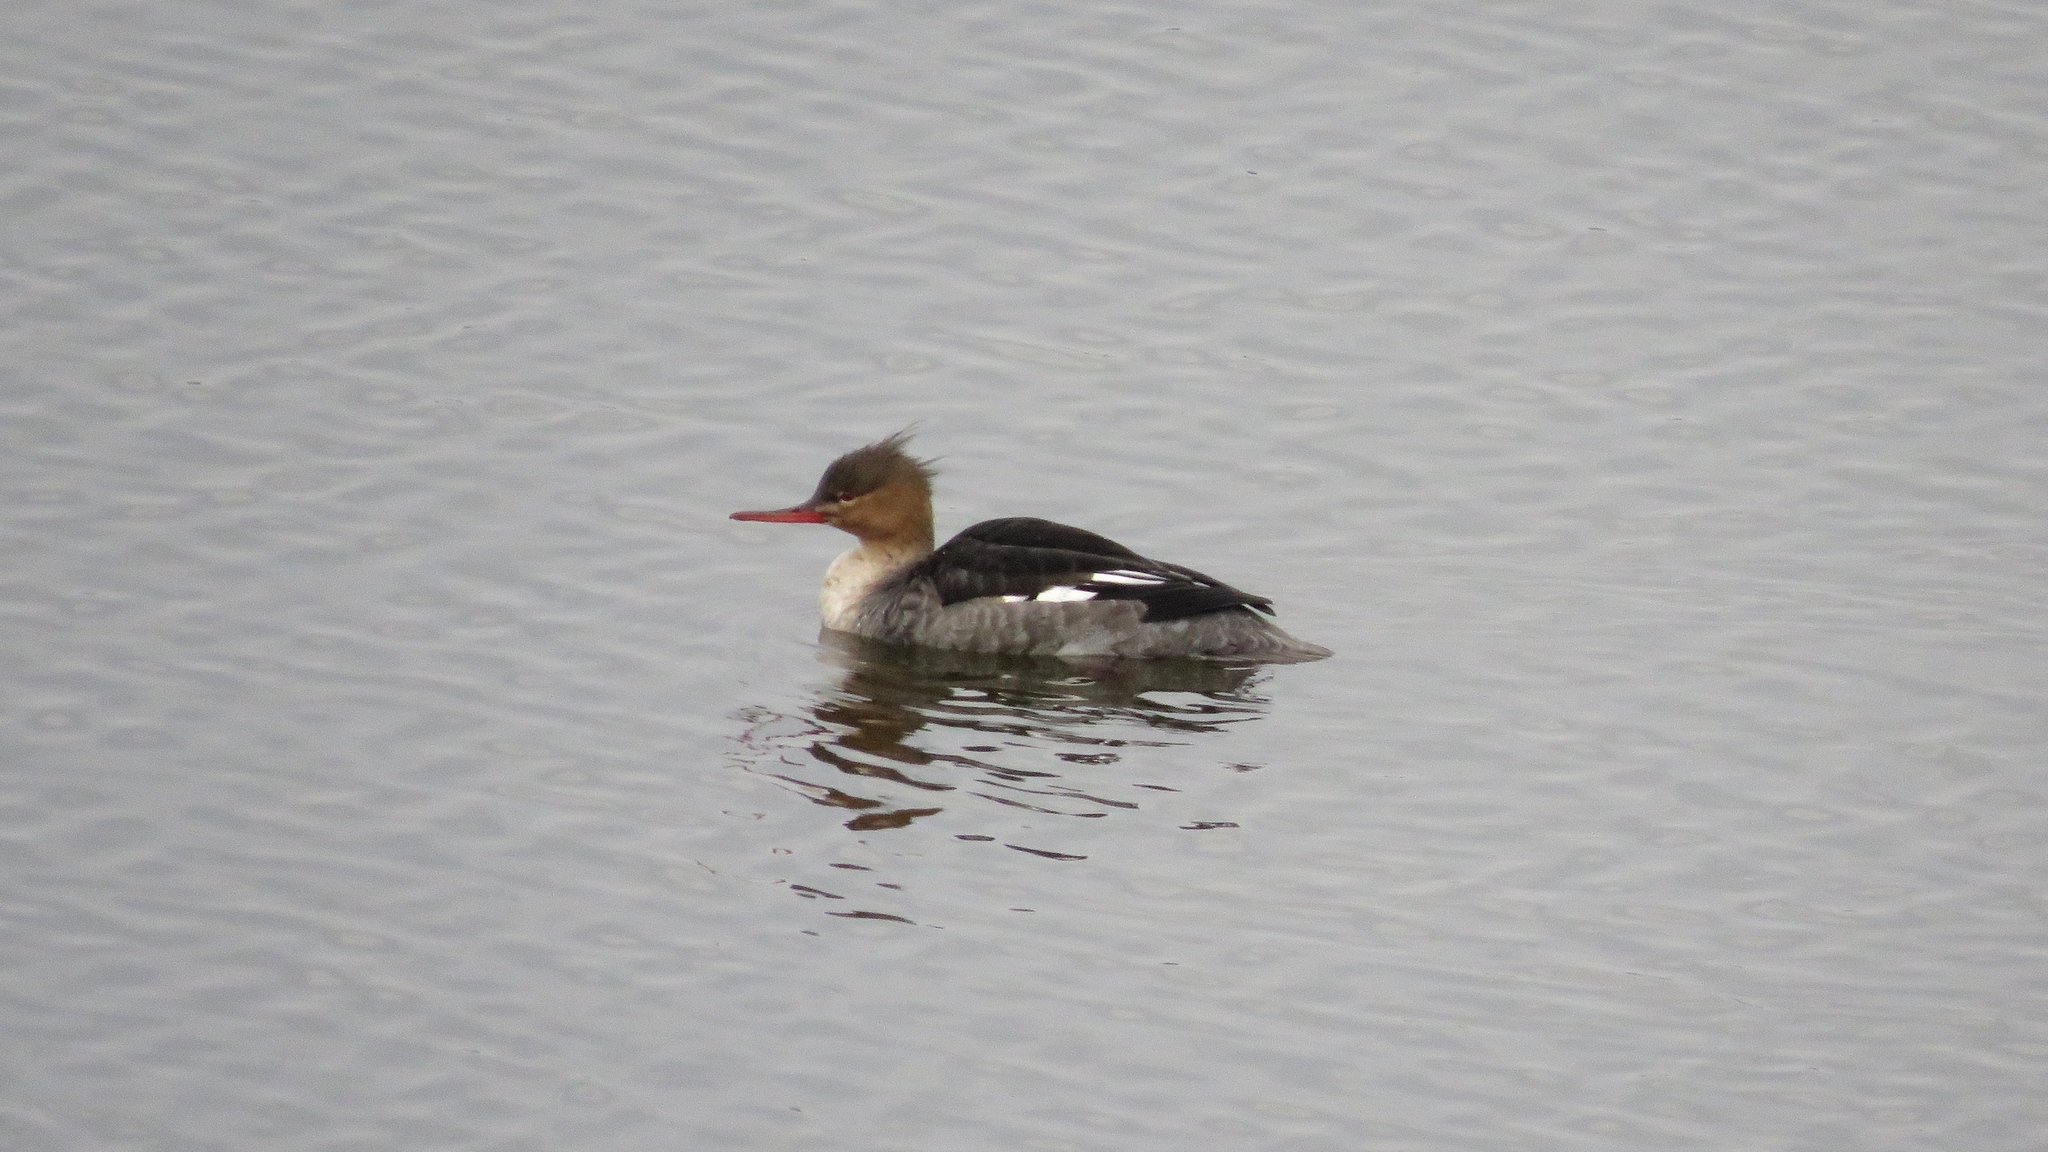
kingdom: Animalia
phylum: Chordata
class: Aves
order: Anseriformes
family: Anatidae
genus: Mergus
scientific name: Mergus serrator
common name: Red-breasted merganser
